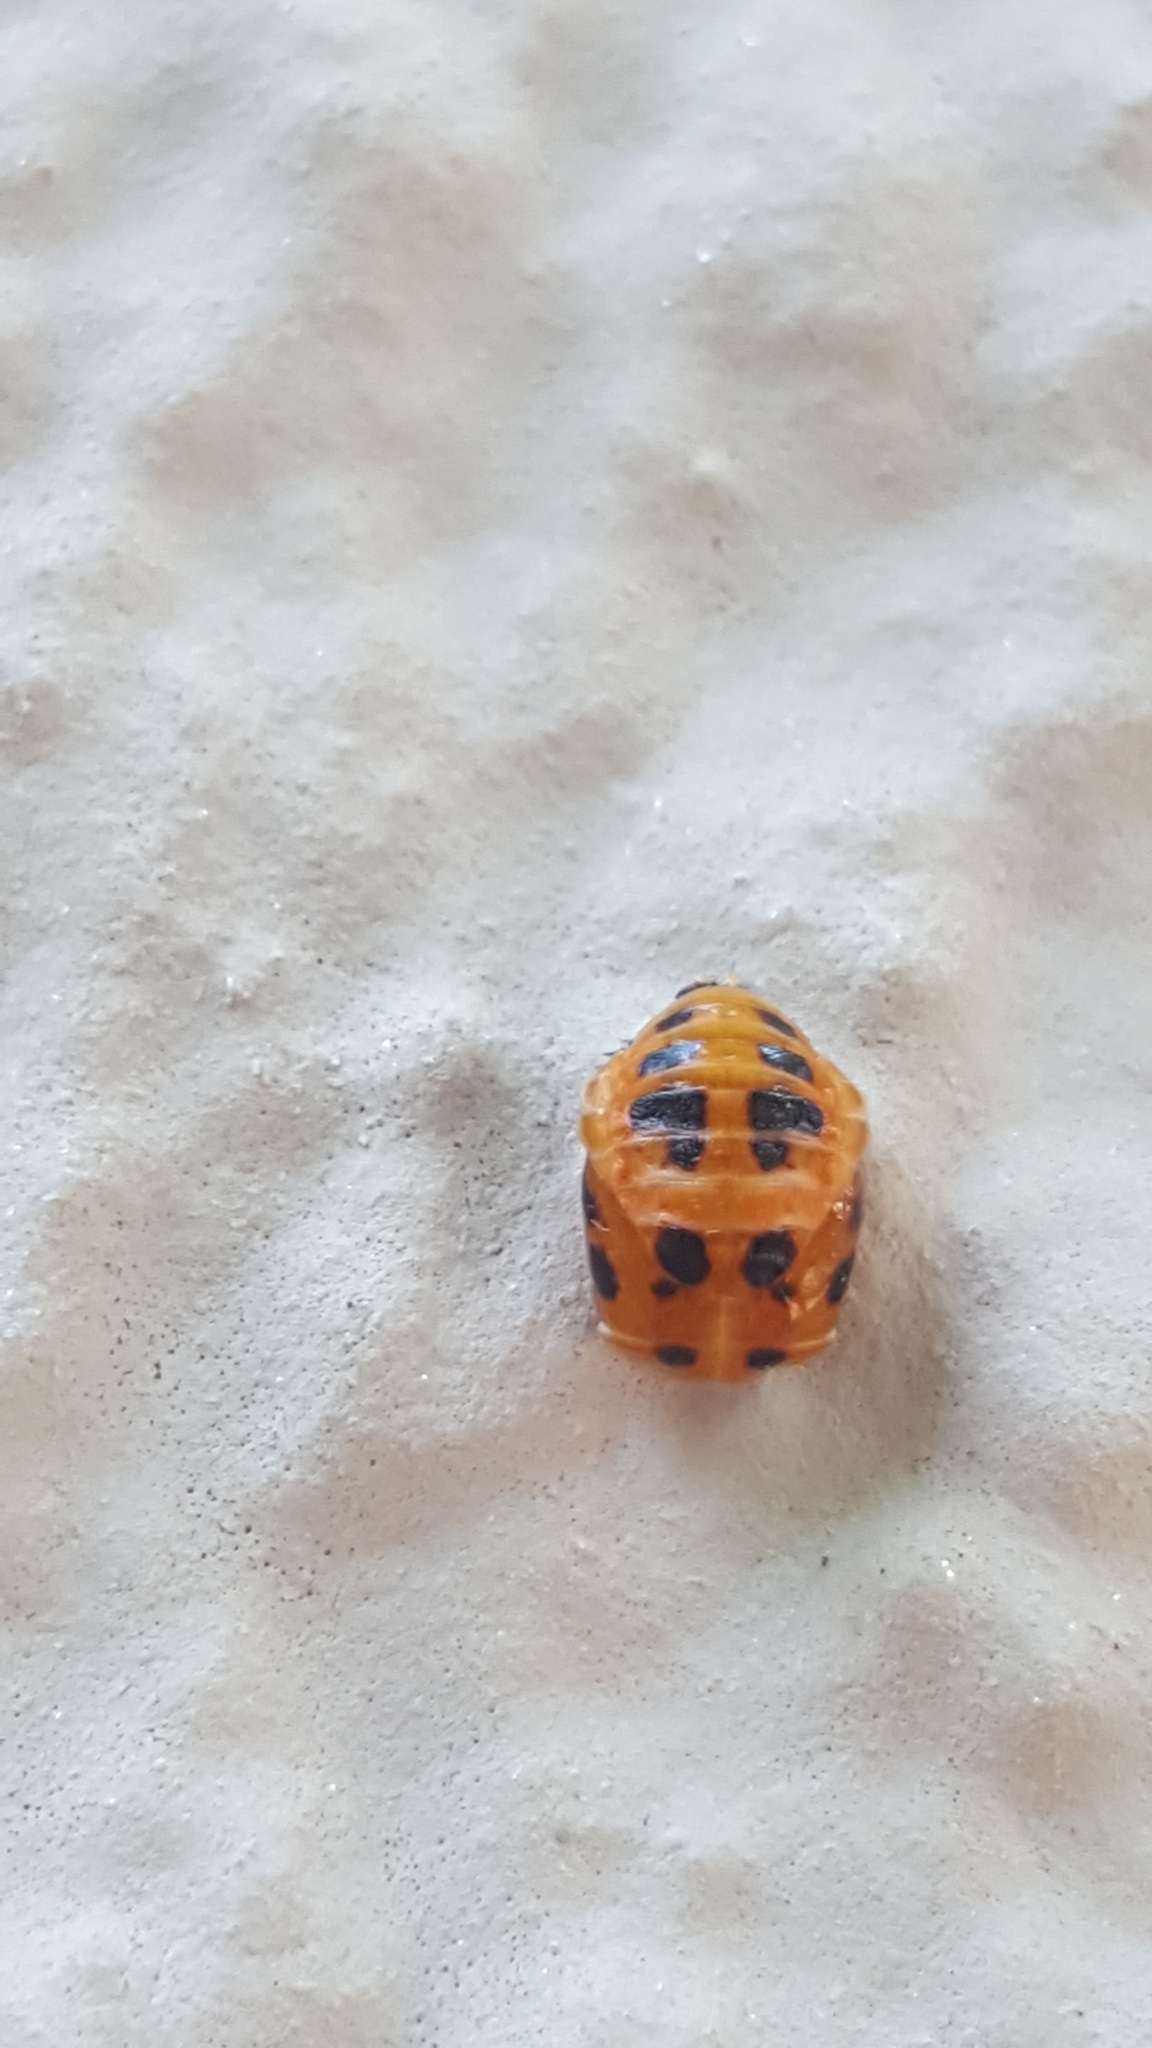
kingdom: Animalia
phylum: Arthropoda
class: Insecta
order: Coleoptera
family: Coccinellidae
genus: Harmonia
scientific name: Harmonia axyridis
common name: Harlequin ladybird
